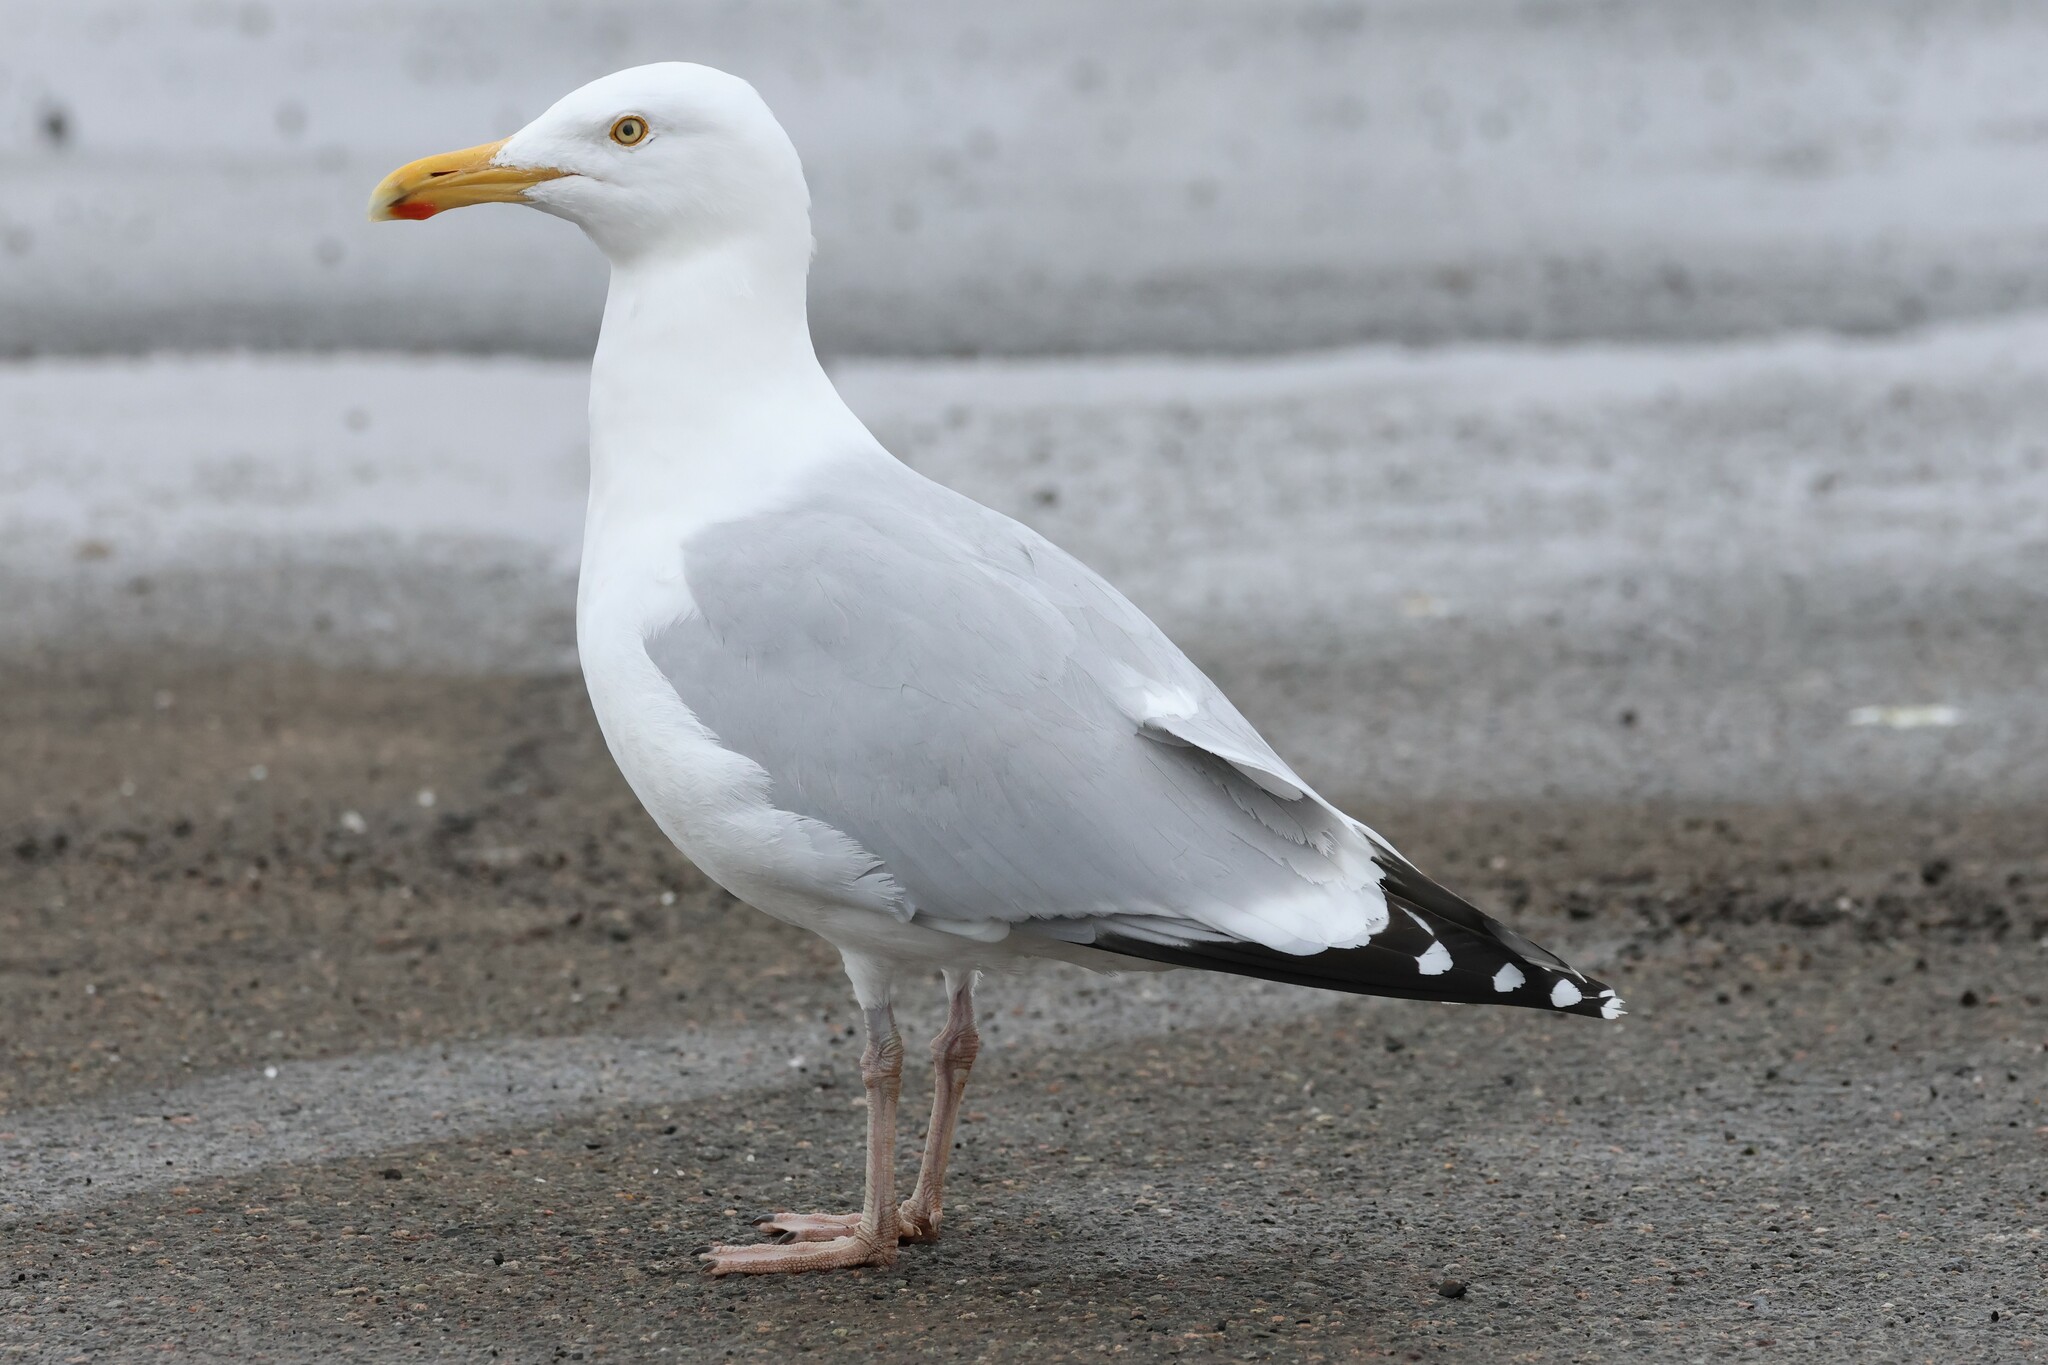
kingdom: Animalia
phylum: Chordata
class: Aves
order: Charadriiformes
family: Laridae
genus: Larus
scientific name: Larus argentatus
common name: Herring gull
